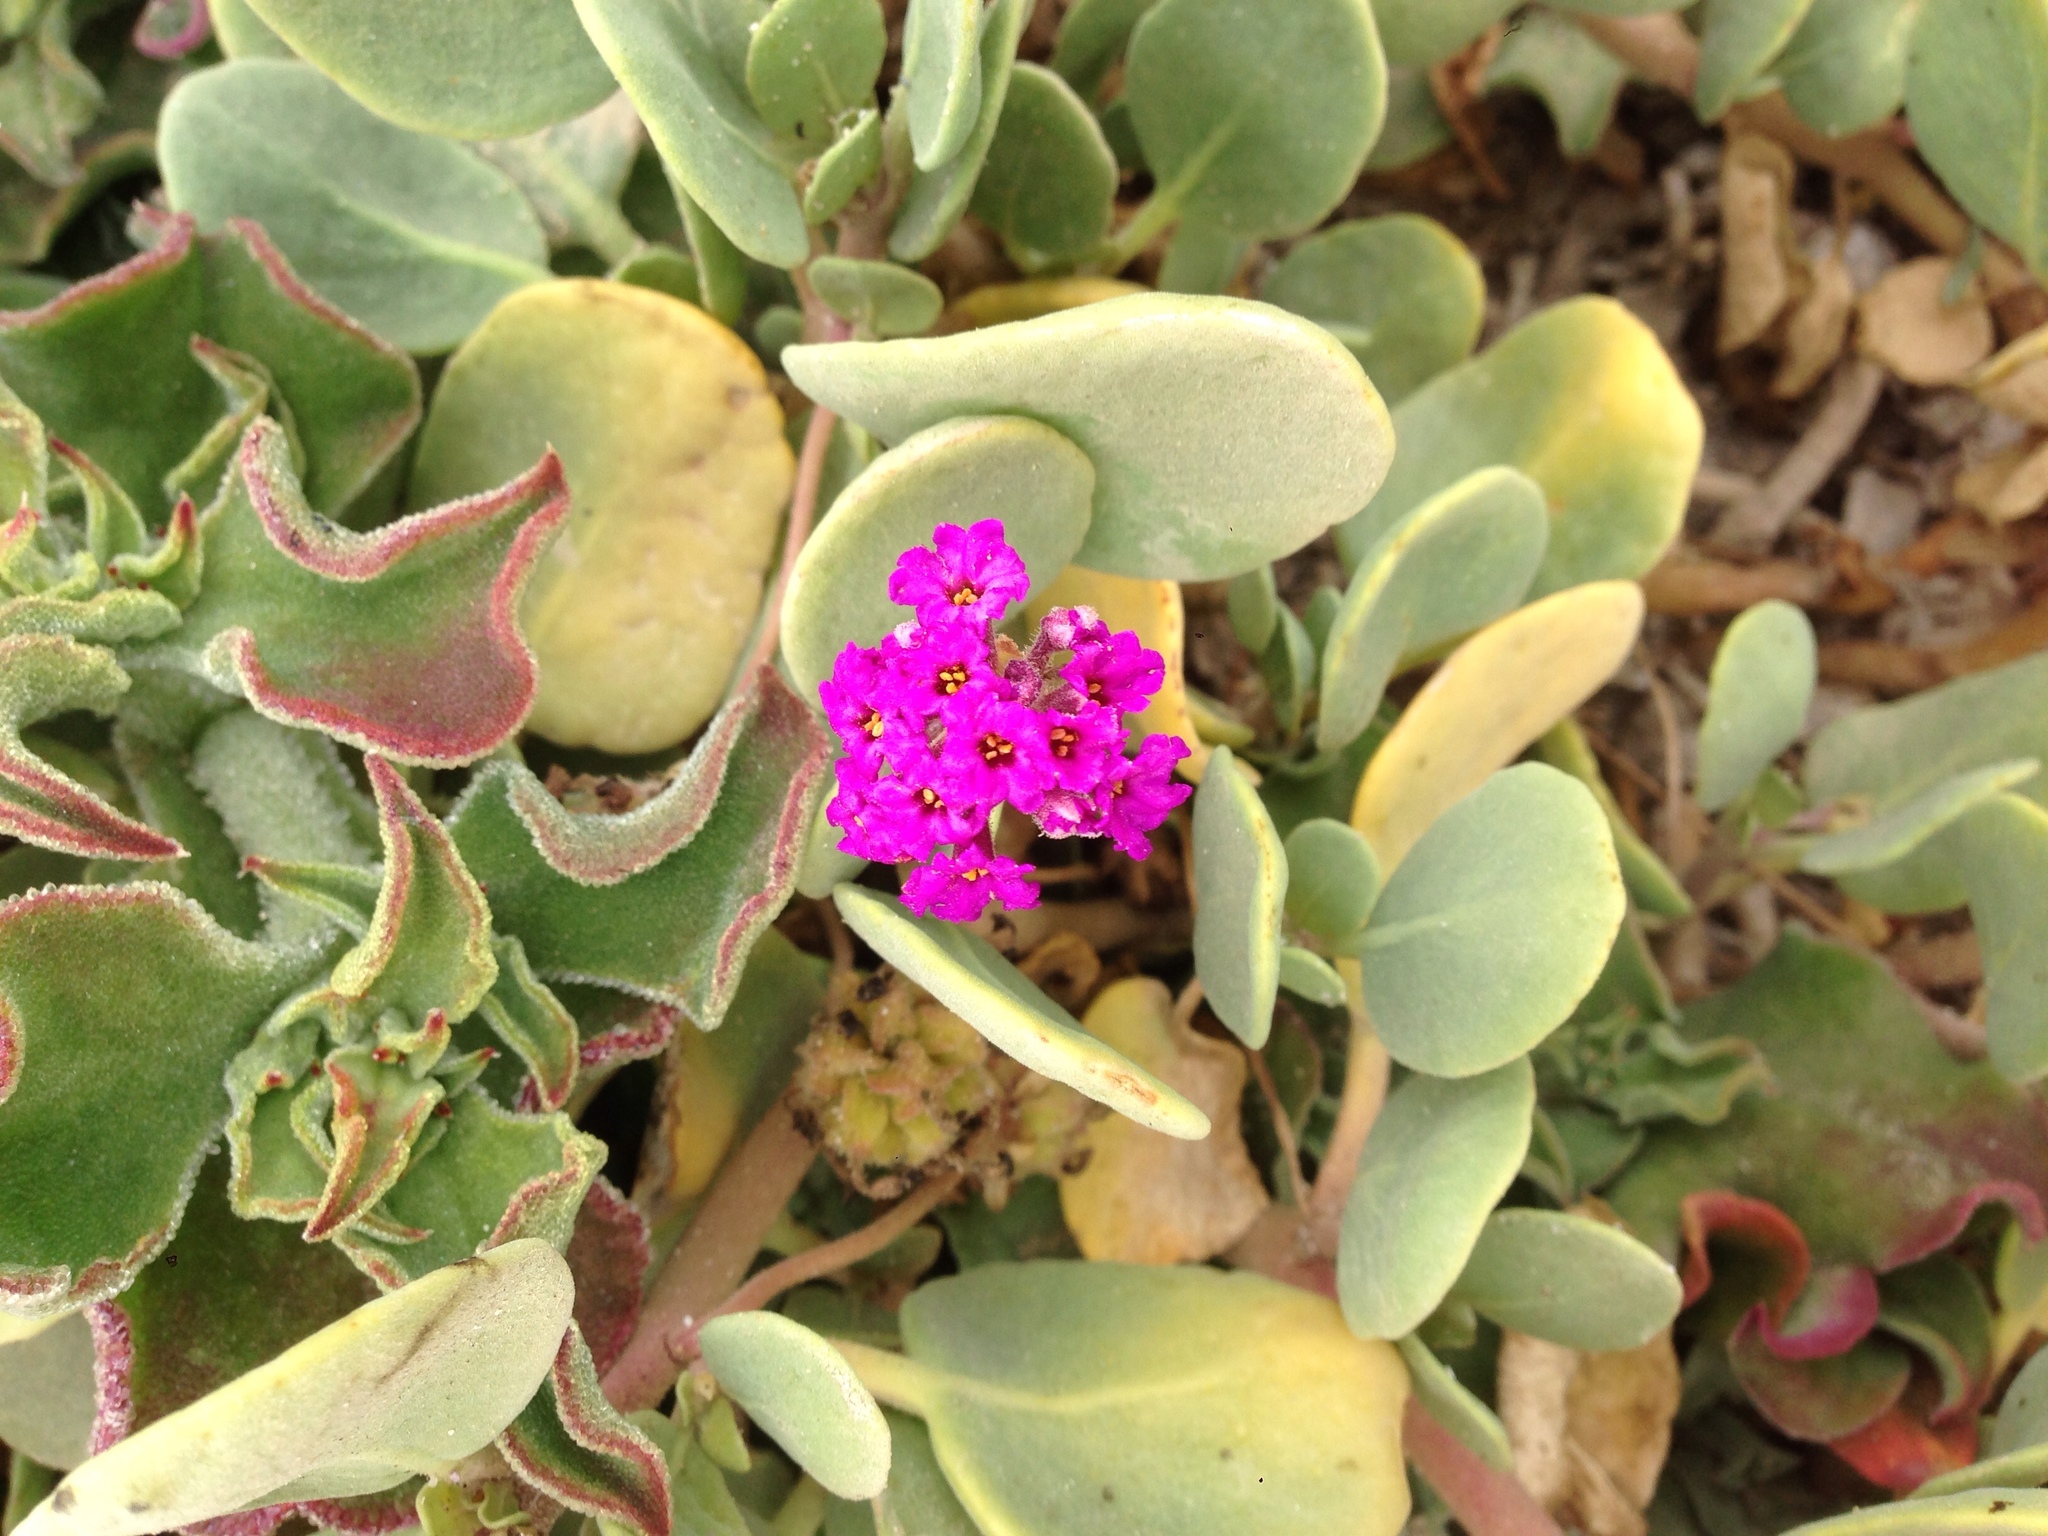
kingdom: Plantae
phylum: Tracheophyta
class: Magnoliopsida
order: Caryophyllales
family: Nyctaginaceae
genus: Abronia
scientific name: Abronia maritima
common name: Red sand-verbena
